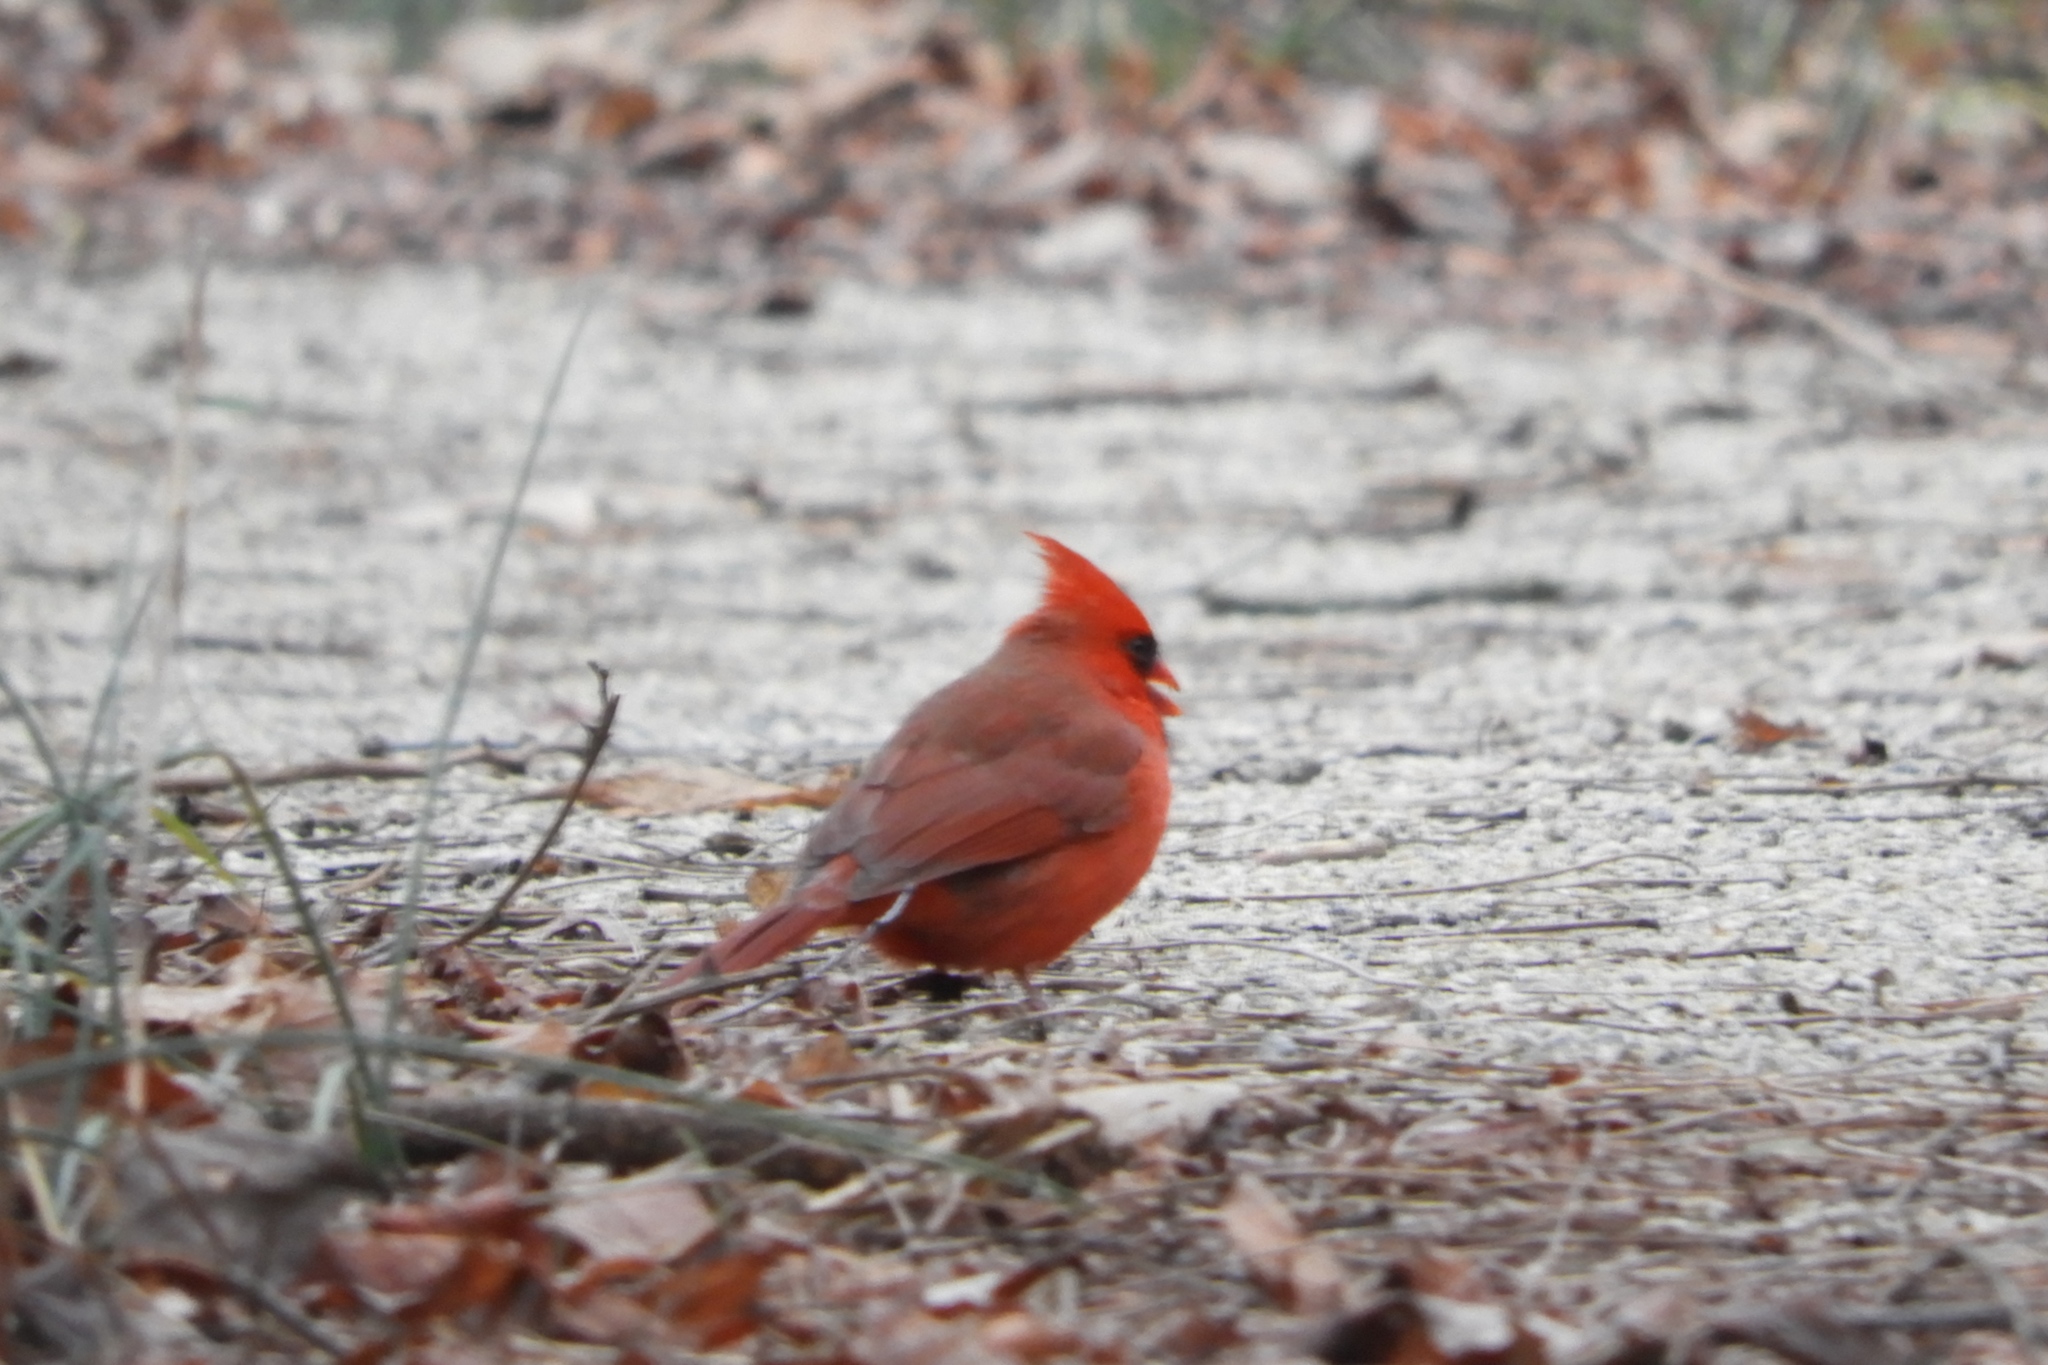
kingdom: Animalia
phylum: Chordata
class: Aves
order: Passeriformes
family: Cardinalidae
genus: Cardinalis
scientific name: Cardinalis cardinalis
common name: Northern cardinal
